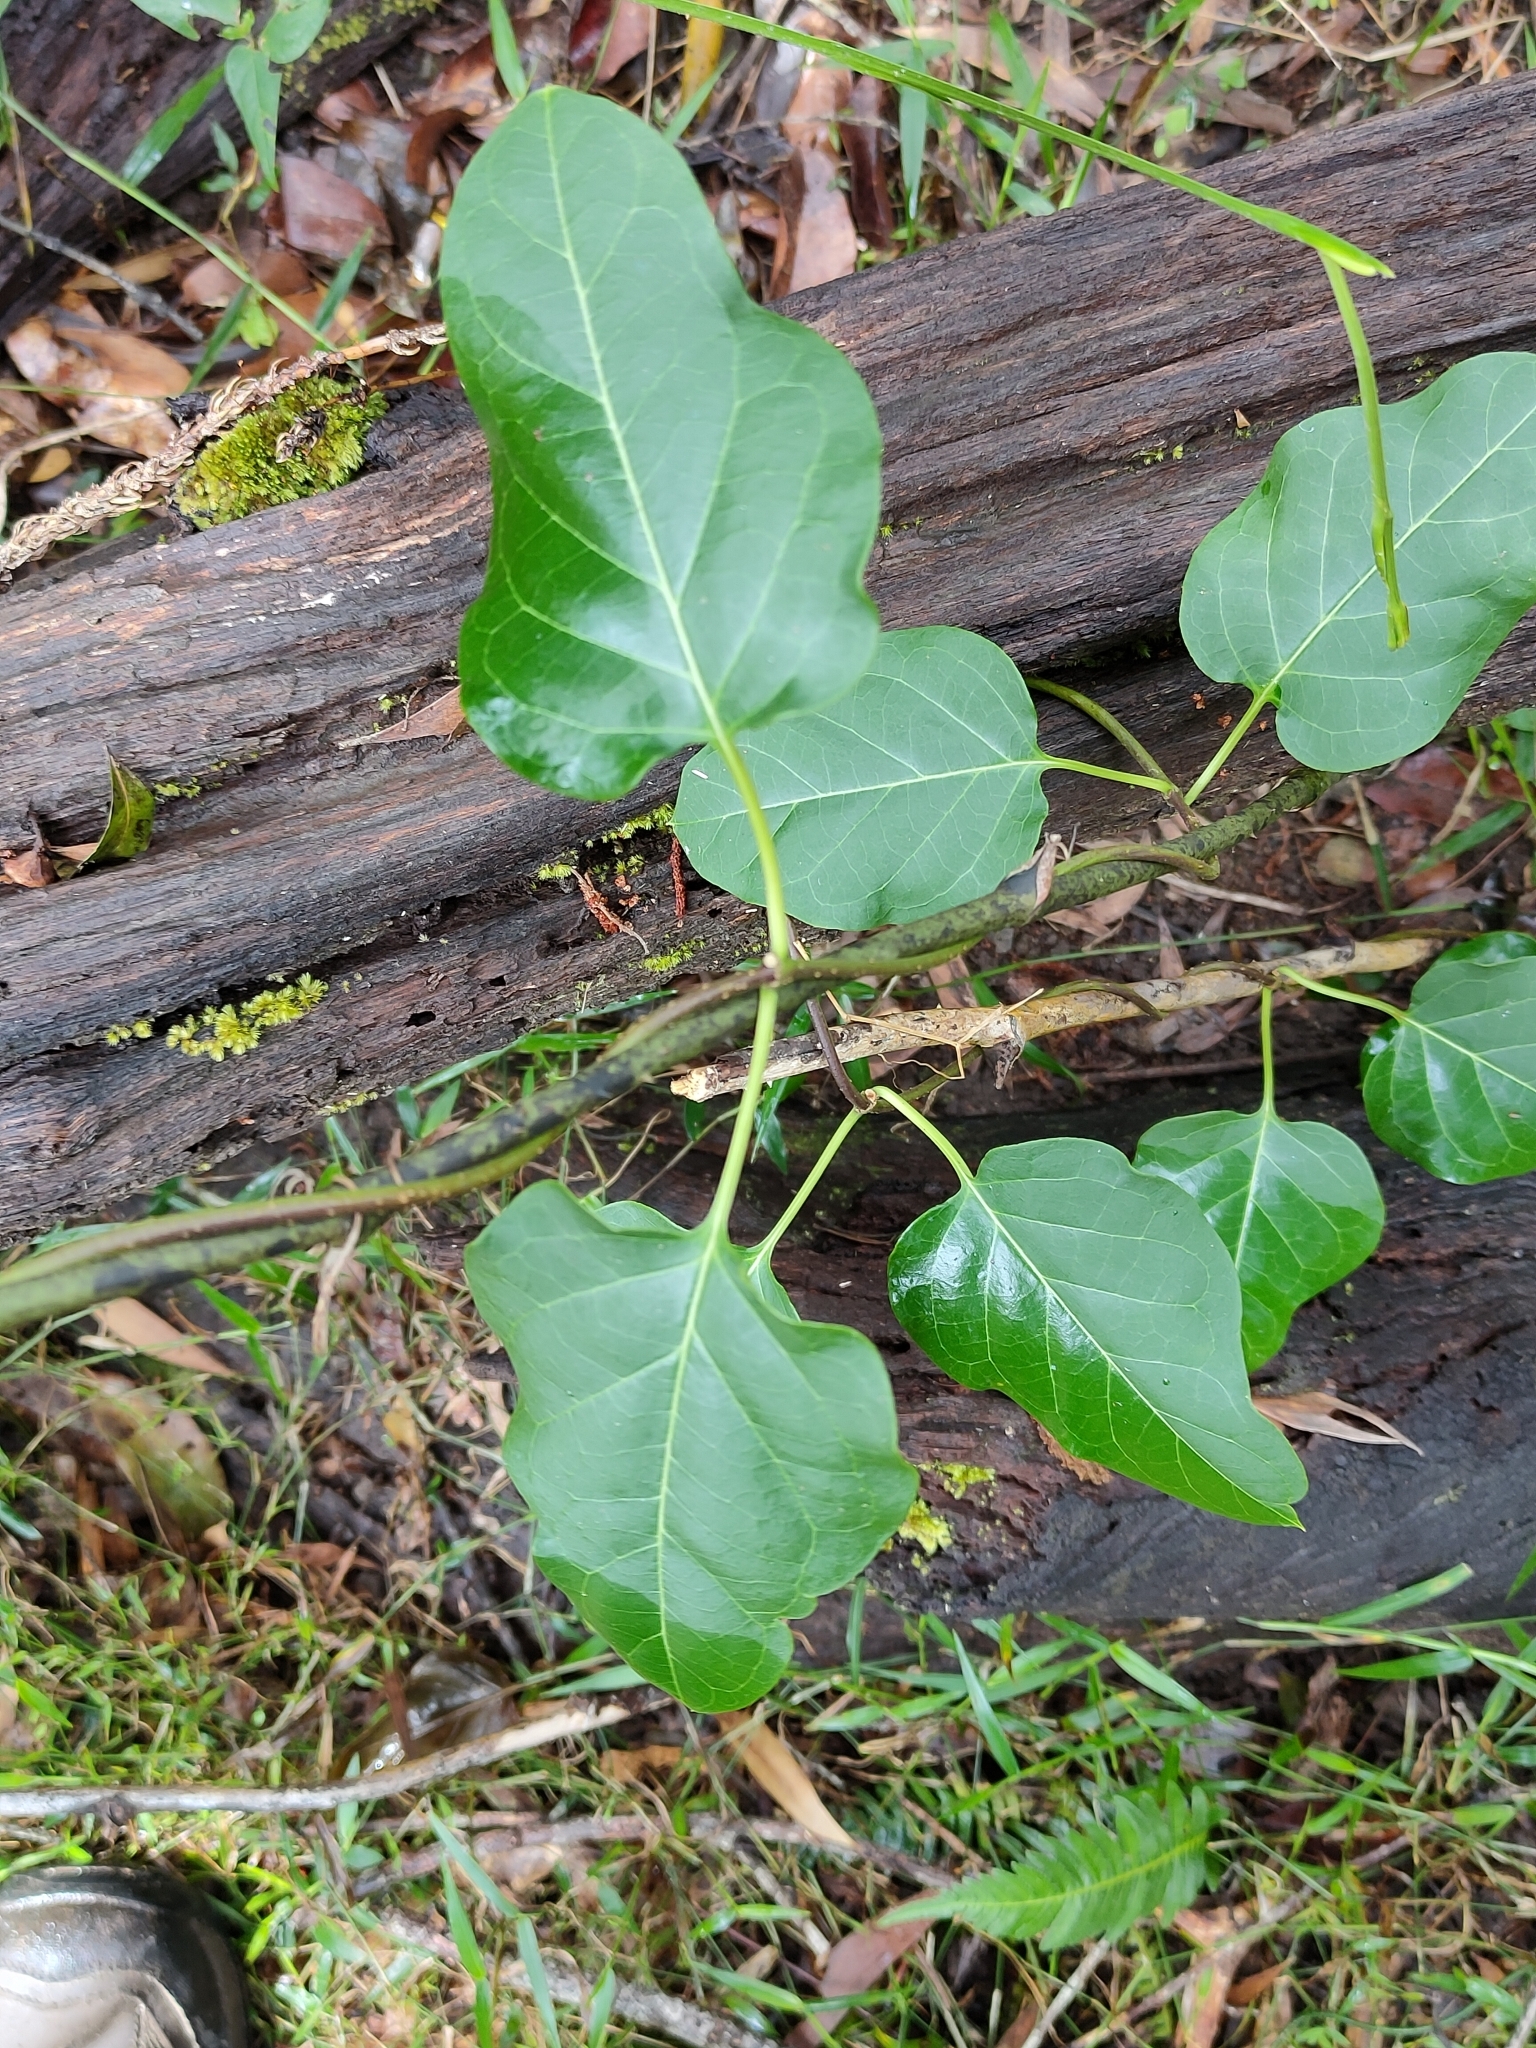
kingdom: Plantae
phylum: Tracheophyta
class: Magnoliopsida
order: Gentianales
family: Apocynaceae
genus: Parsonsia
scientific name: Parsonsia leichhardtii
